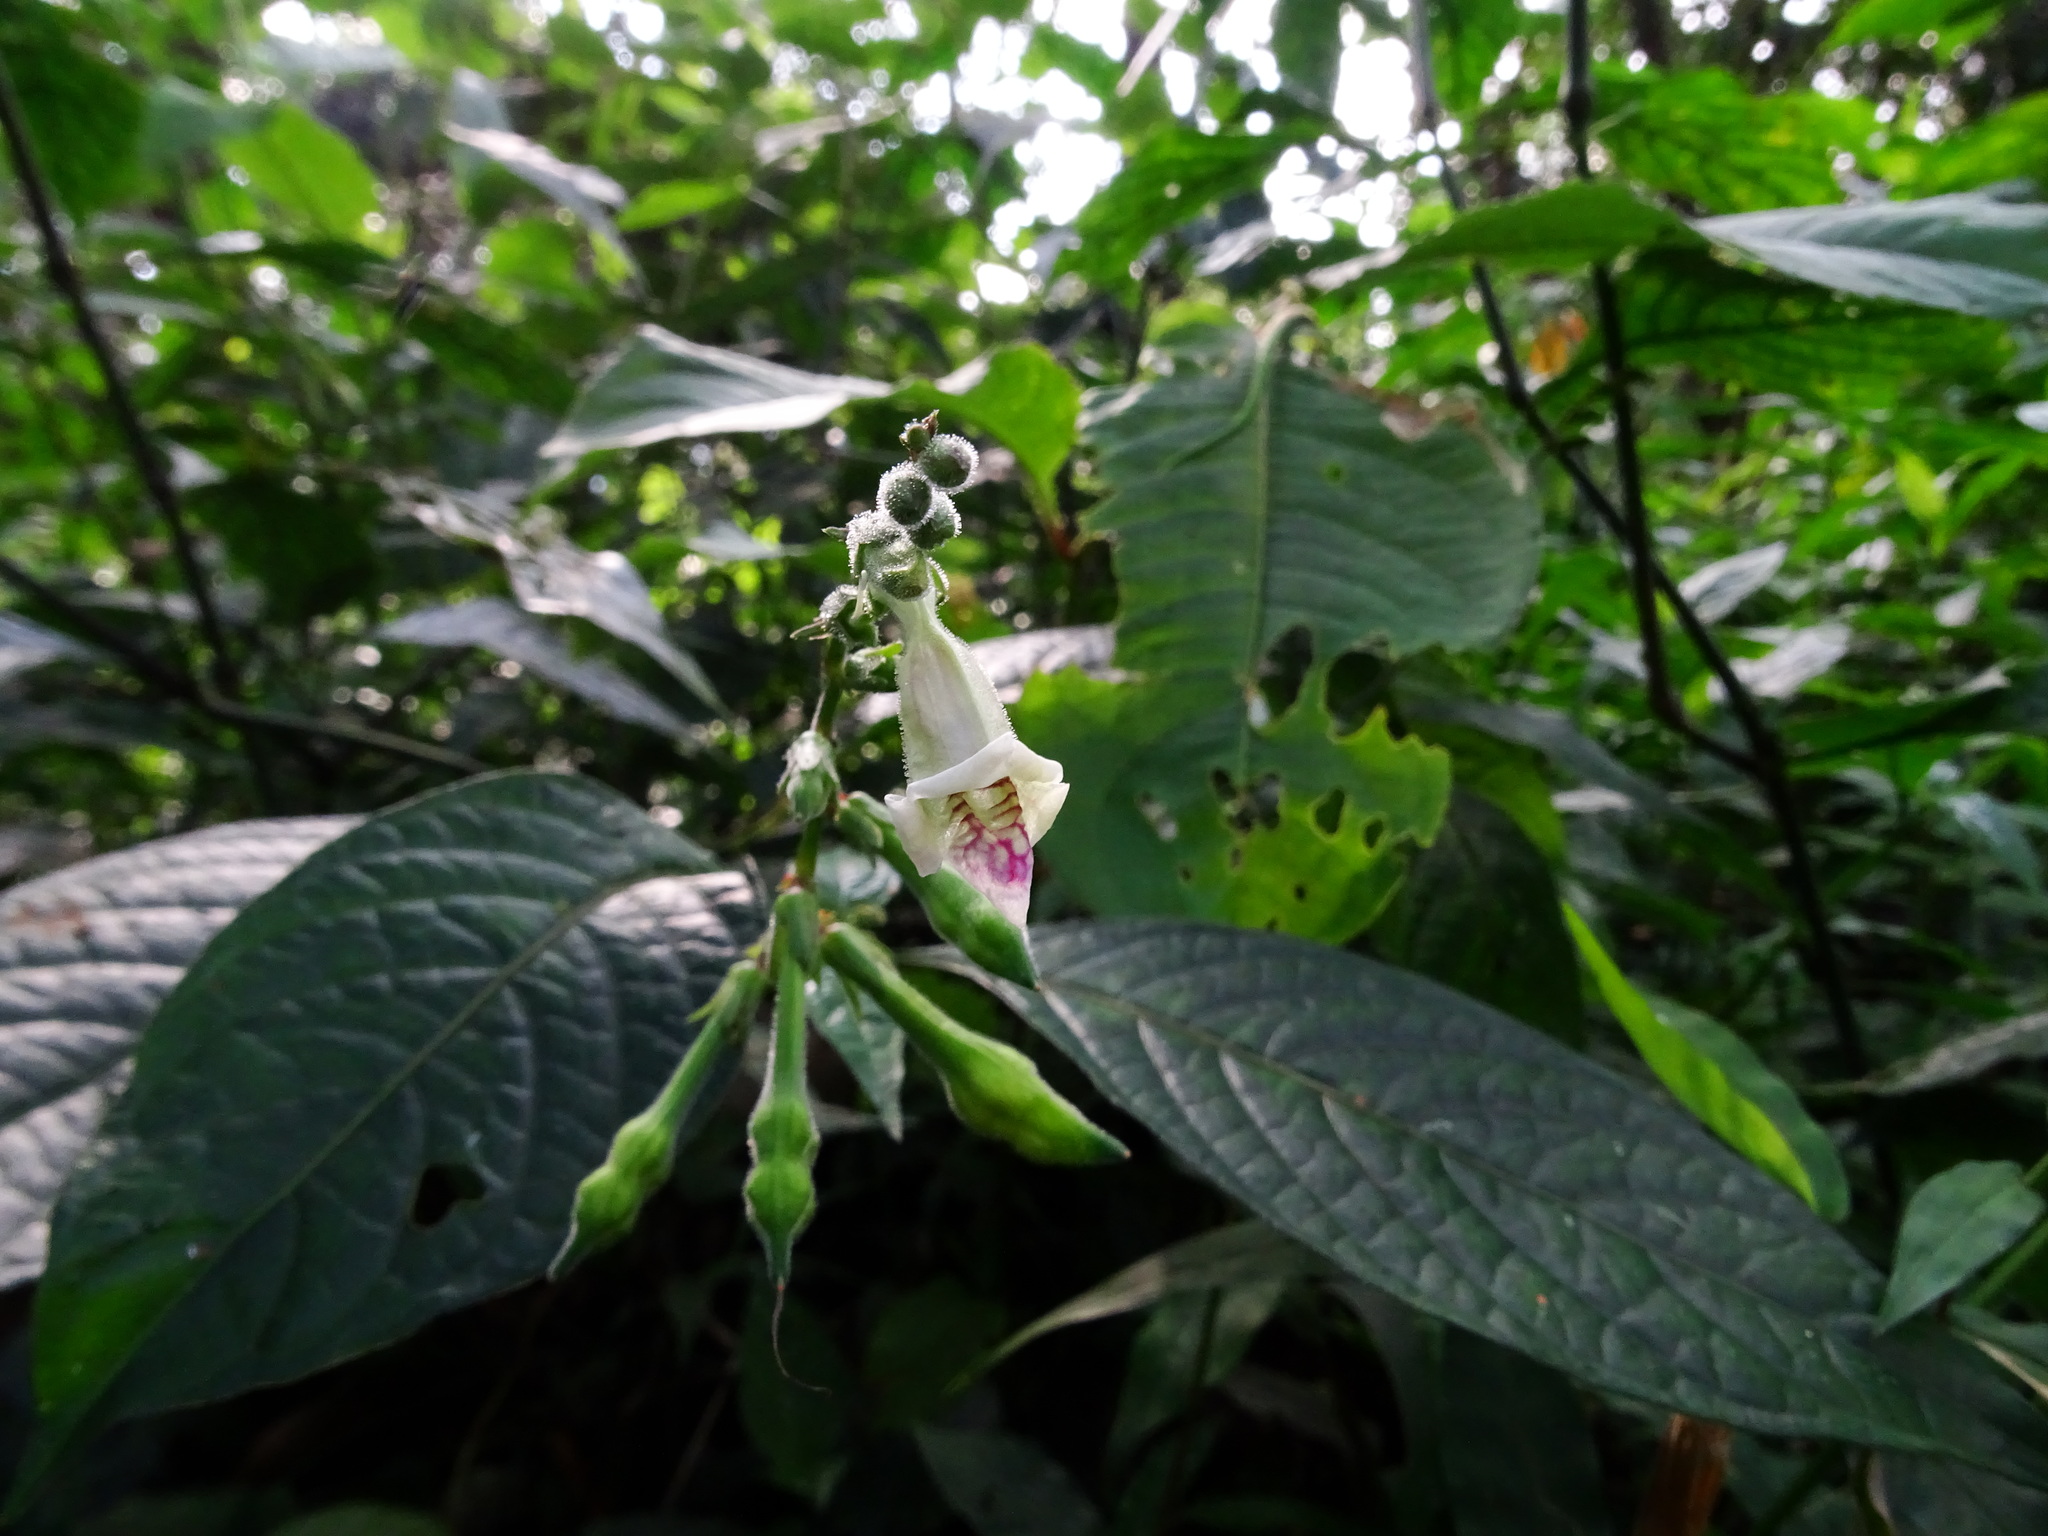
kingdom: Plantae
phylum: Tracheophyta
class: Magnoliopsida
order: Lamiales
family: Acanthaceae
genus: Asystasia
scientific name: Asystasia dalzelliana
